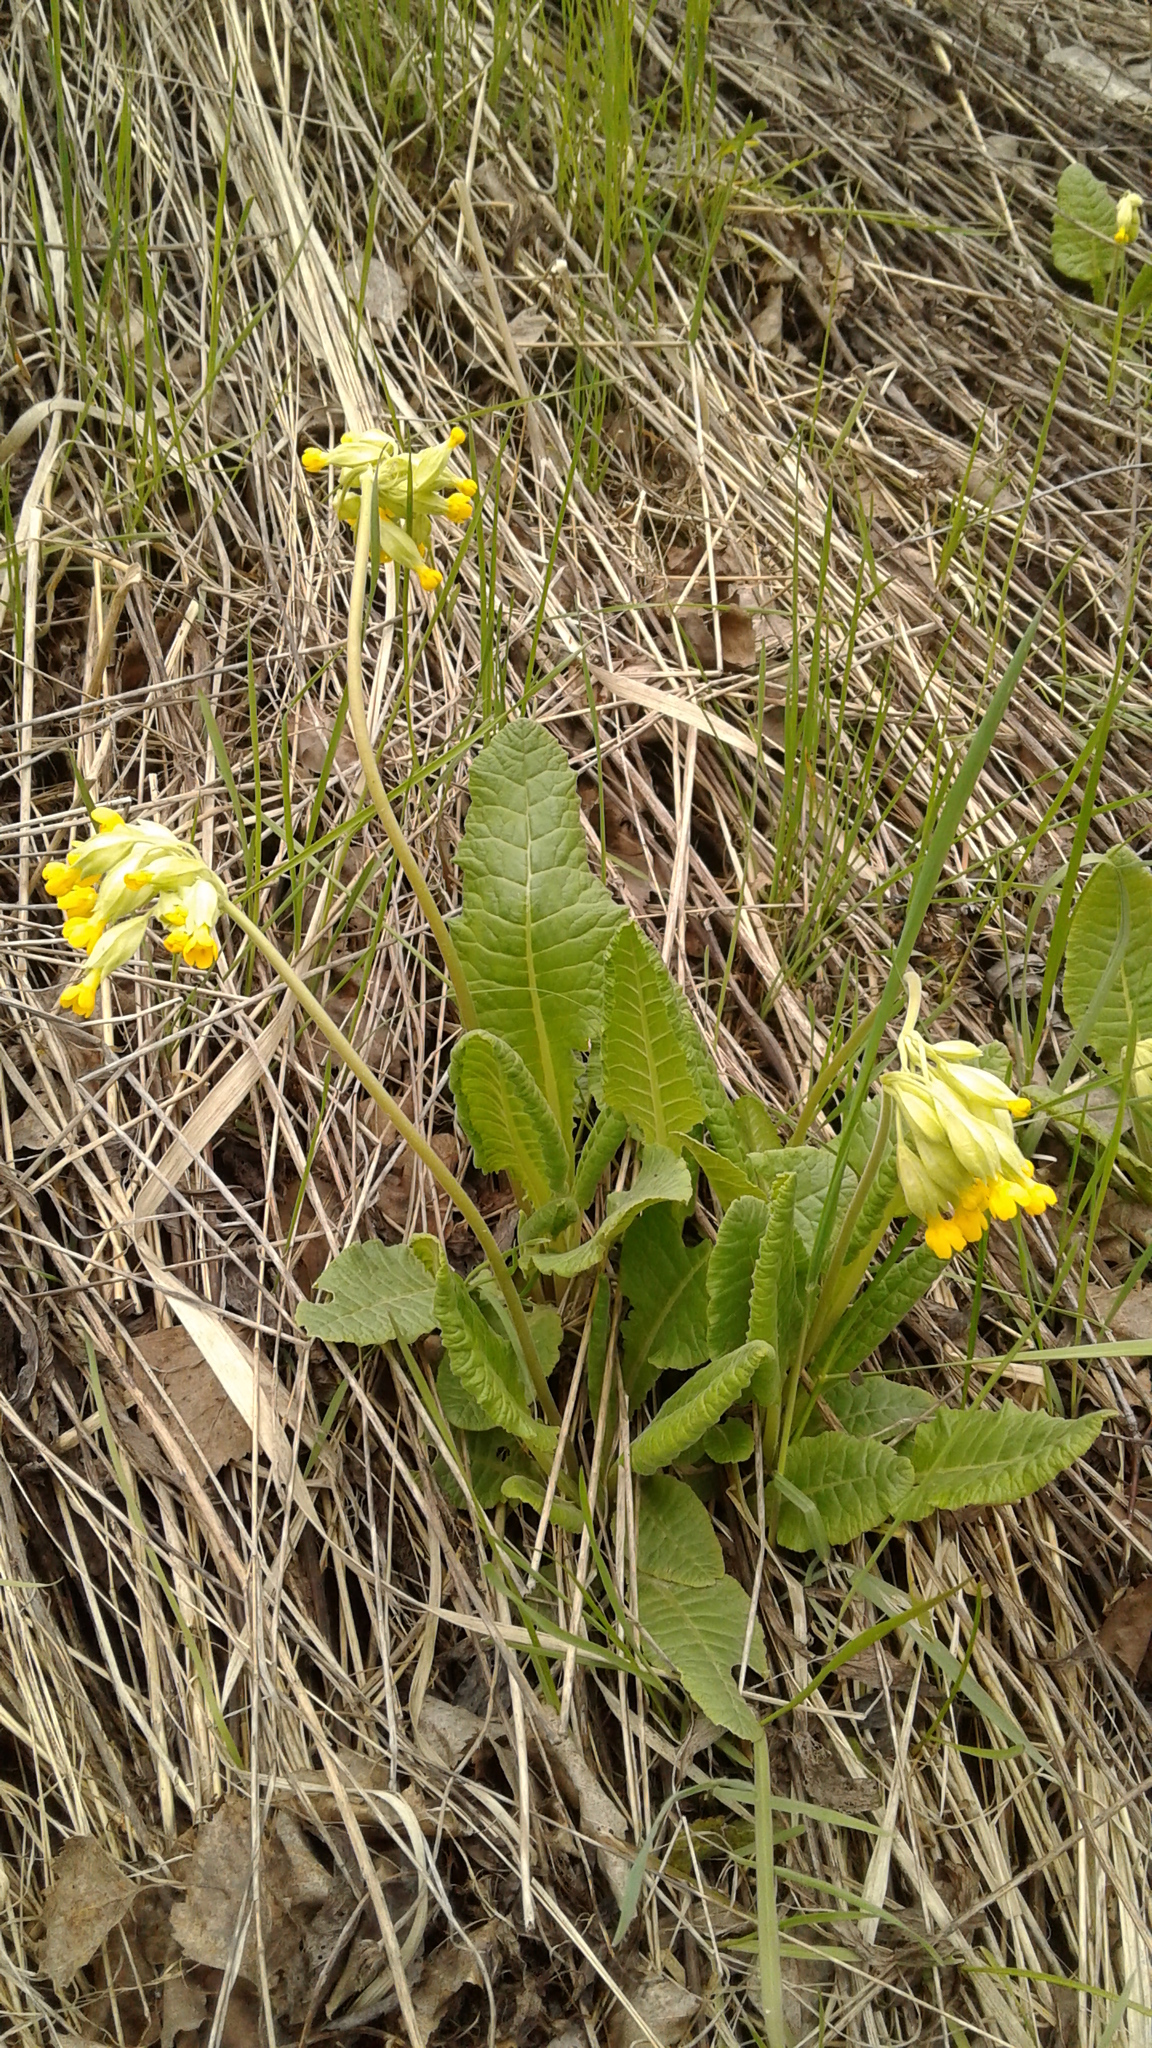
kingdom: Plantae
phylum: Tracheophyta
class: Magnoliopsida
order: Ericales
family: Primulaceae
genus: Primula
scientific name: Primula veris
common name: Cowslip
